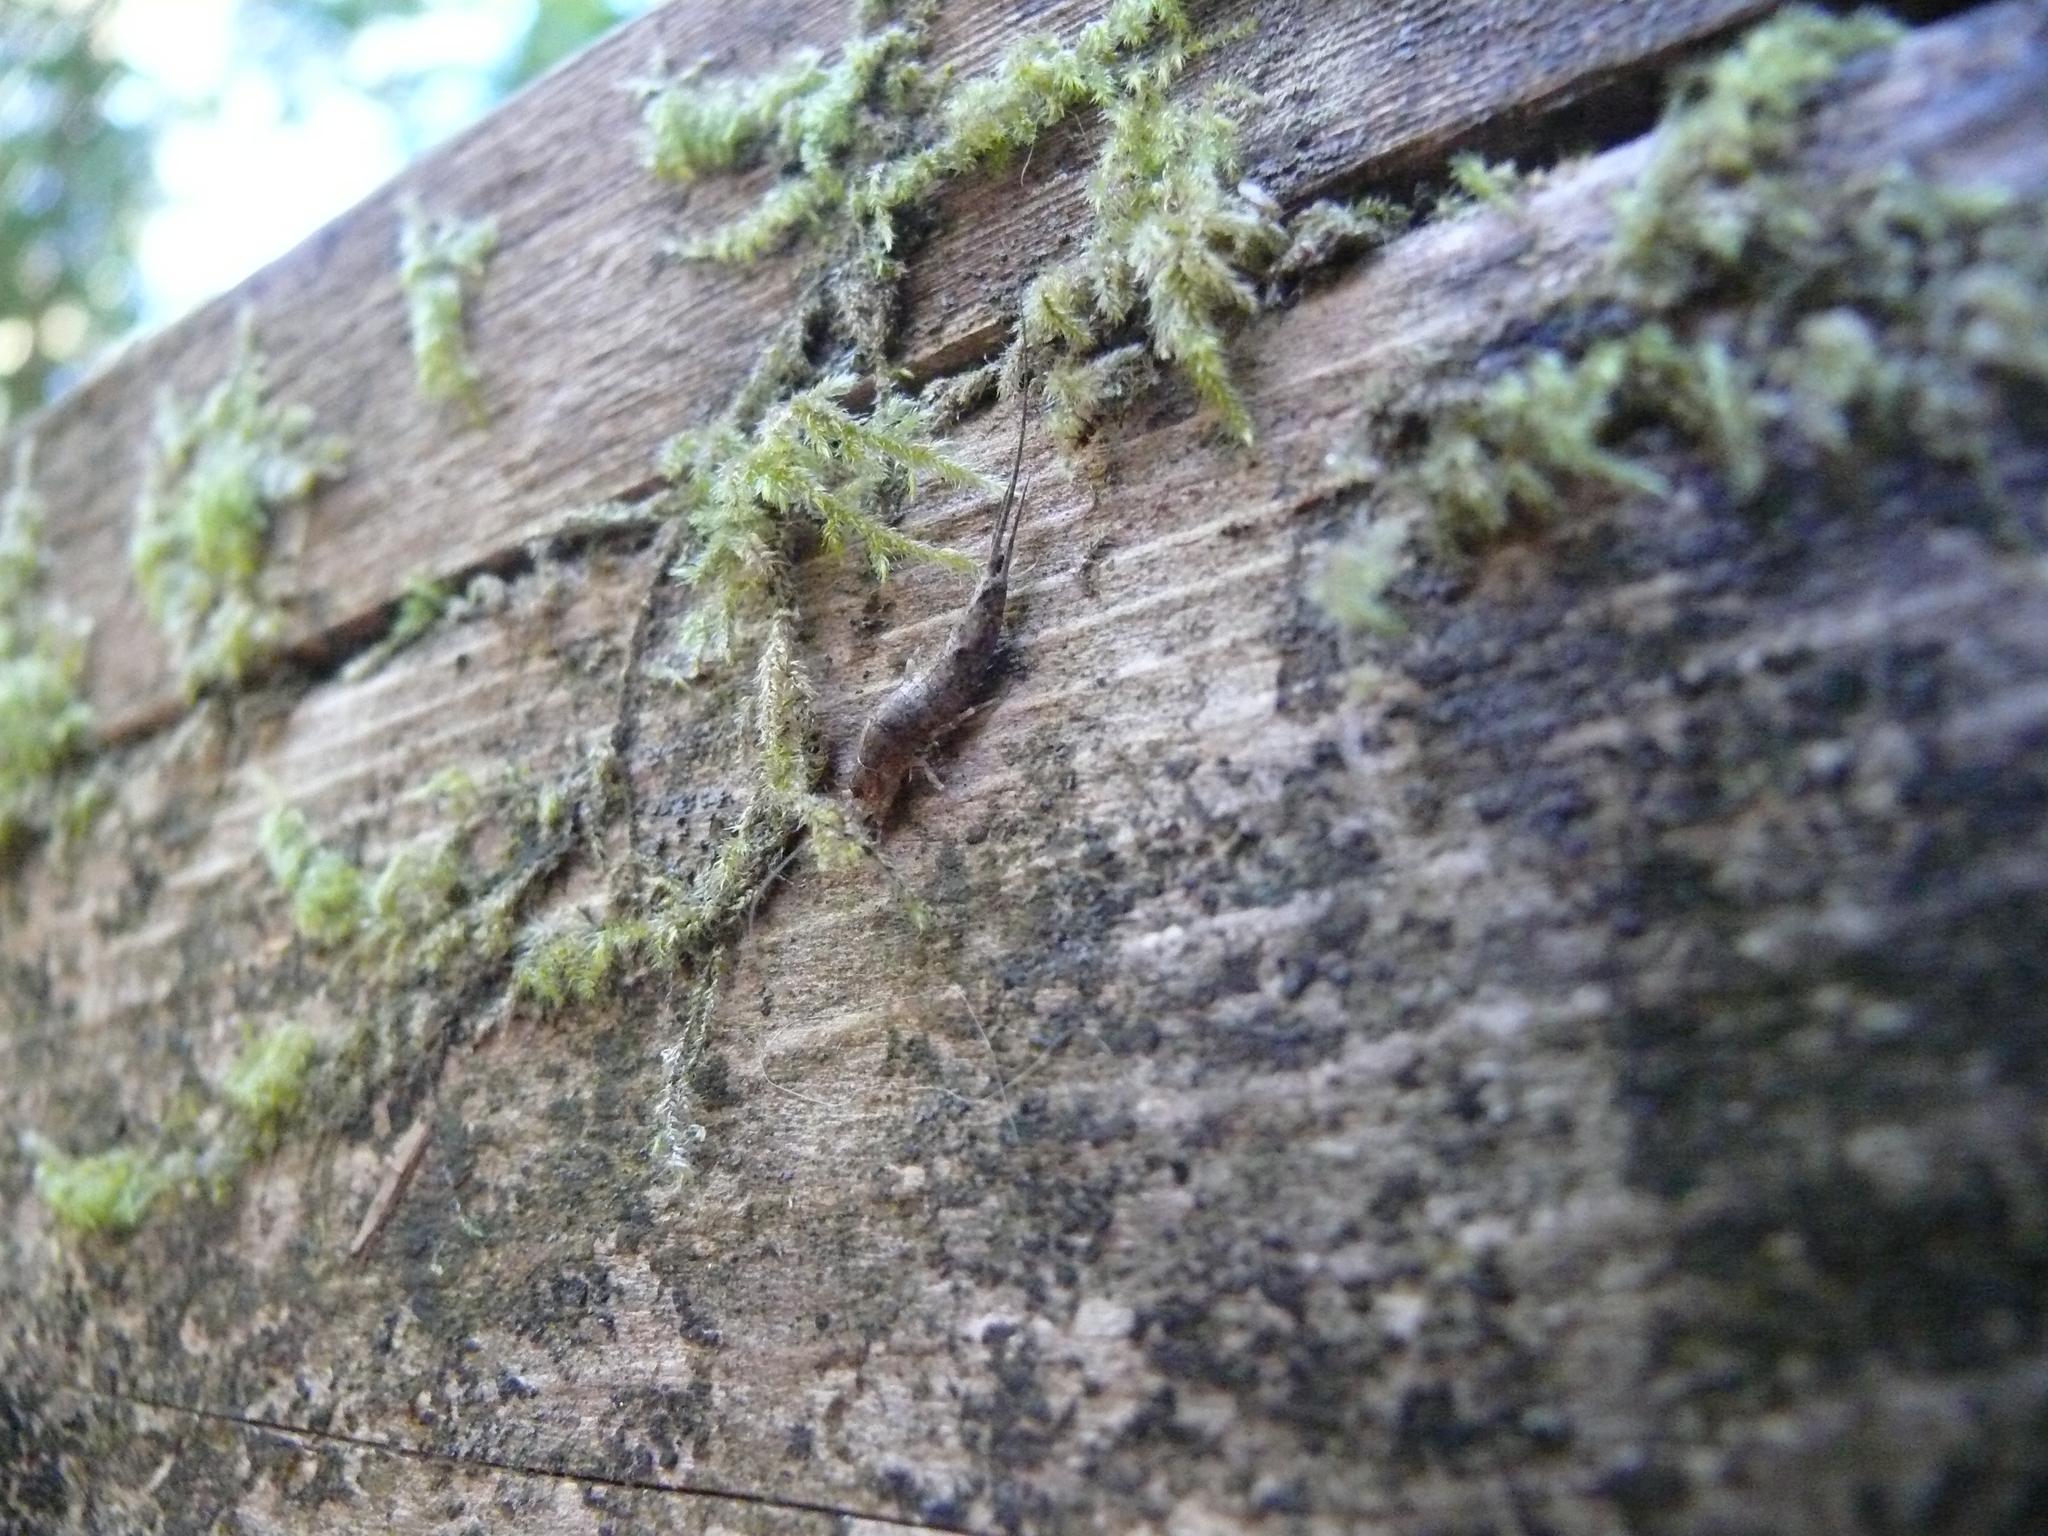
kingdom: Animalia
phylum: Arthropoda
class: Insecta
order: Archaeognatha
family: Machilidae
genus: Pedetontus
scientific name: Pedetontus californicus
